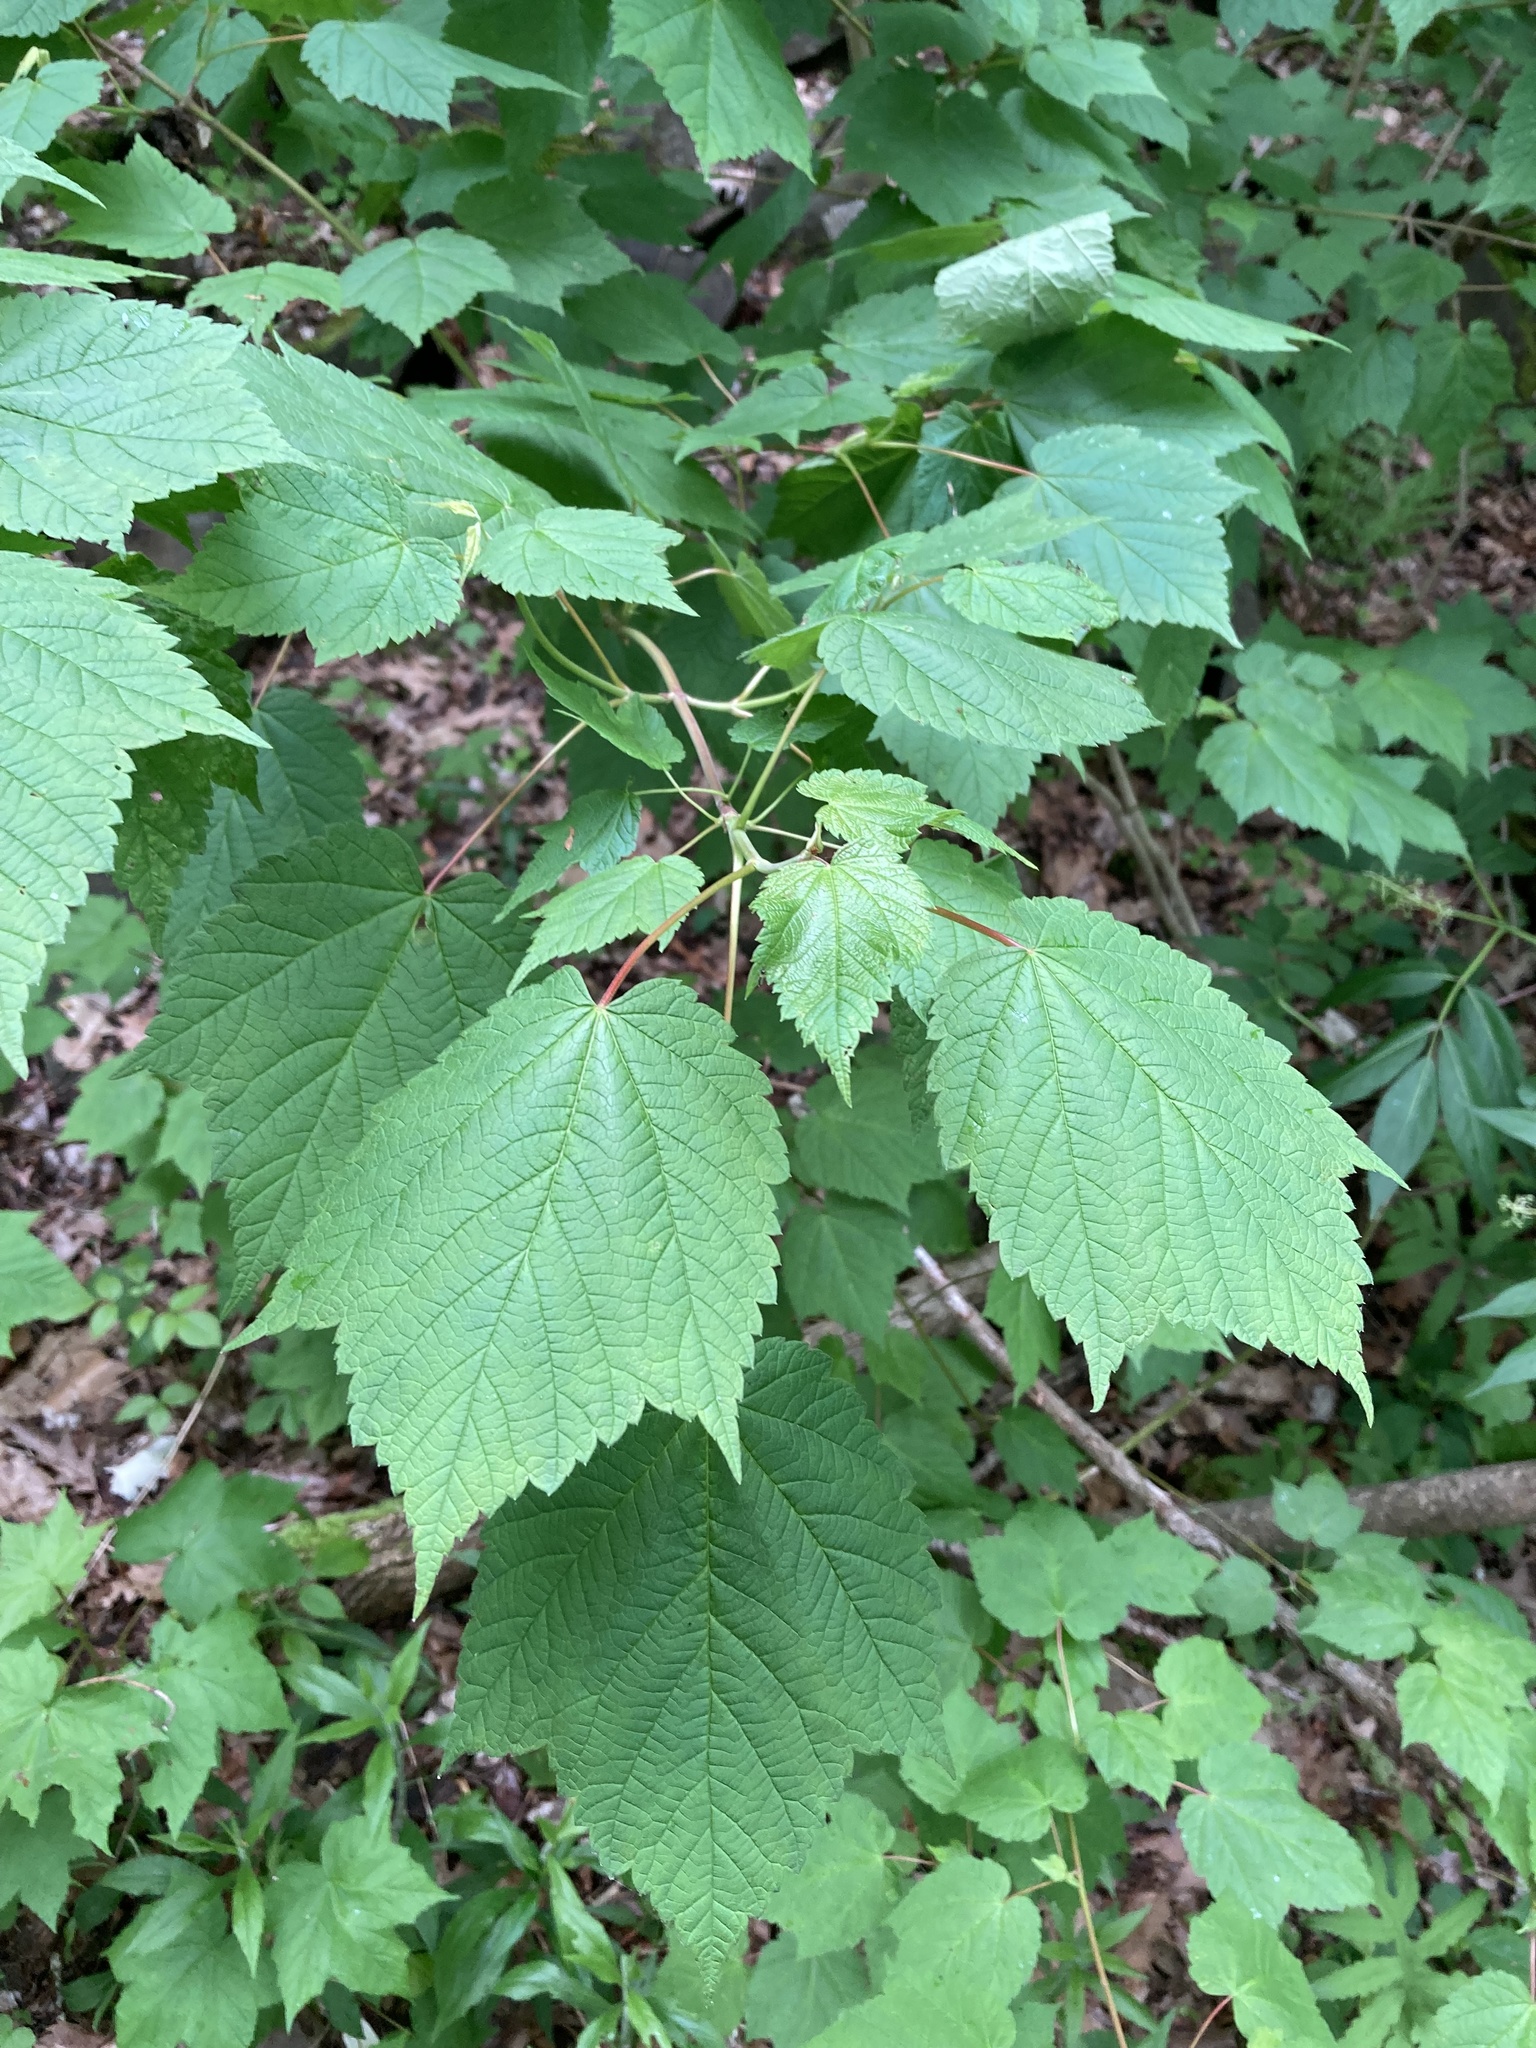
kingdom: Plantae
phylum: Tracheophyta
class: Magnoliopsida
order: Sapindales
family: Sapindaceae
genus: Acer
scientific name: Acer spicatum
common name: Mountain maple
